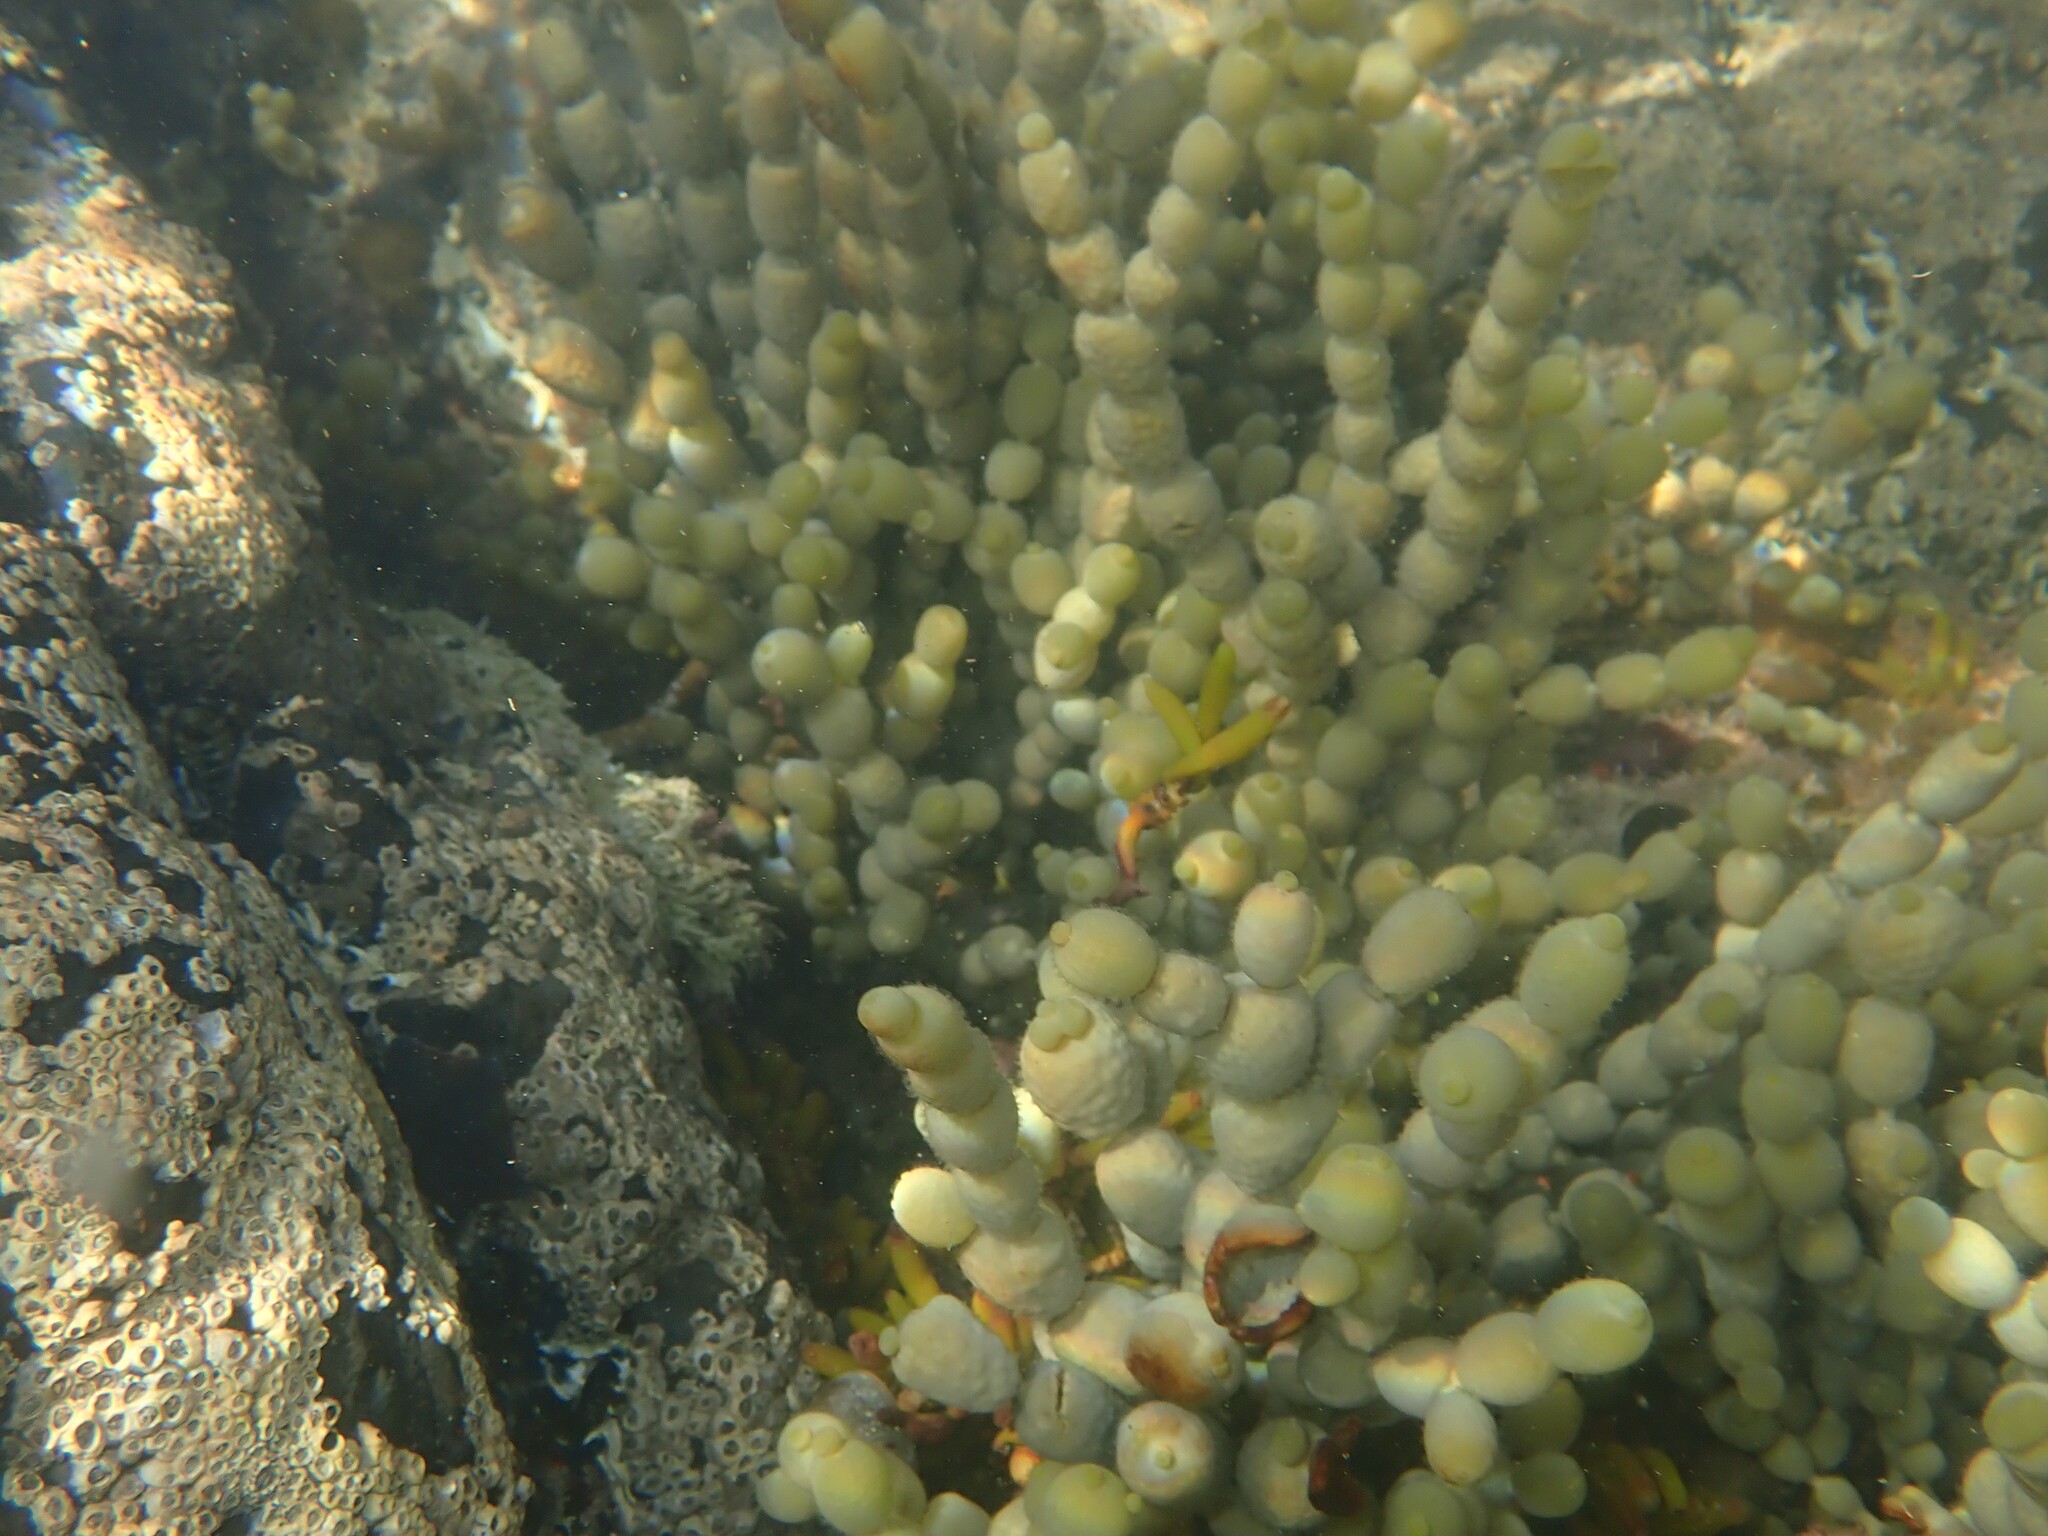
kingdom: Chromista
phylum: Ochrophyta
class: Phaeophyceae
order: Fucales
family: Hormosiraceae
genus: Hormosira
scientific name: Hormosira banksii
